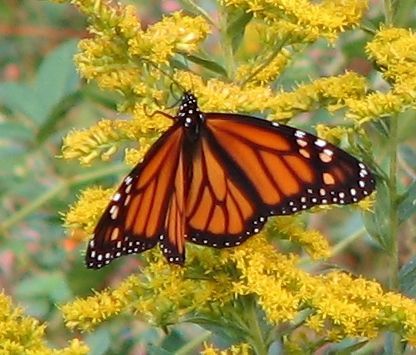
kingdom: Animalia
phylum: Arthropoda
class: Insecta
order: Lepidoptera
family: Nymphalidae
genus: Danaus
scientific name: Danaus plexippus
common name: Monarch
